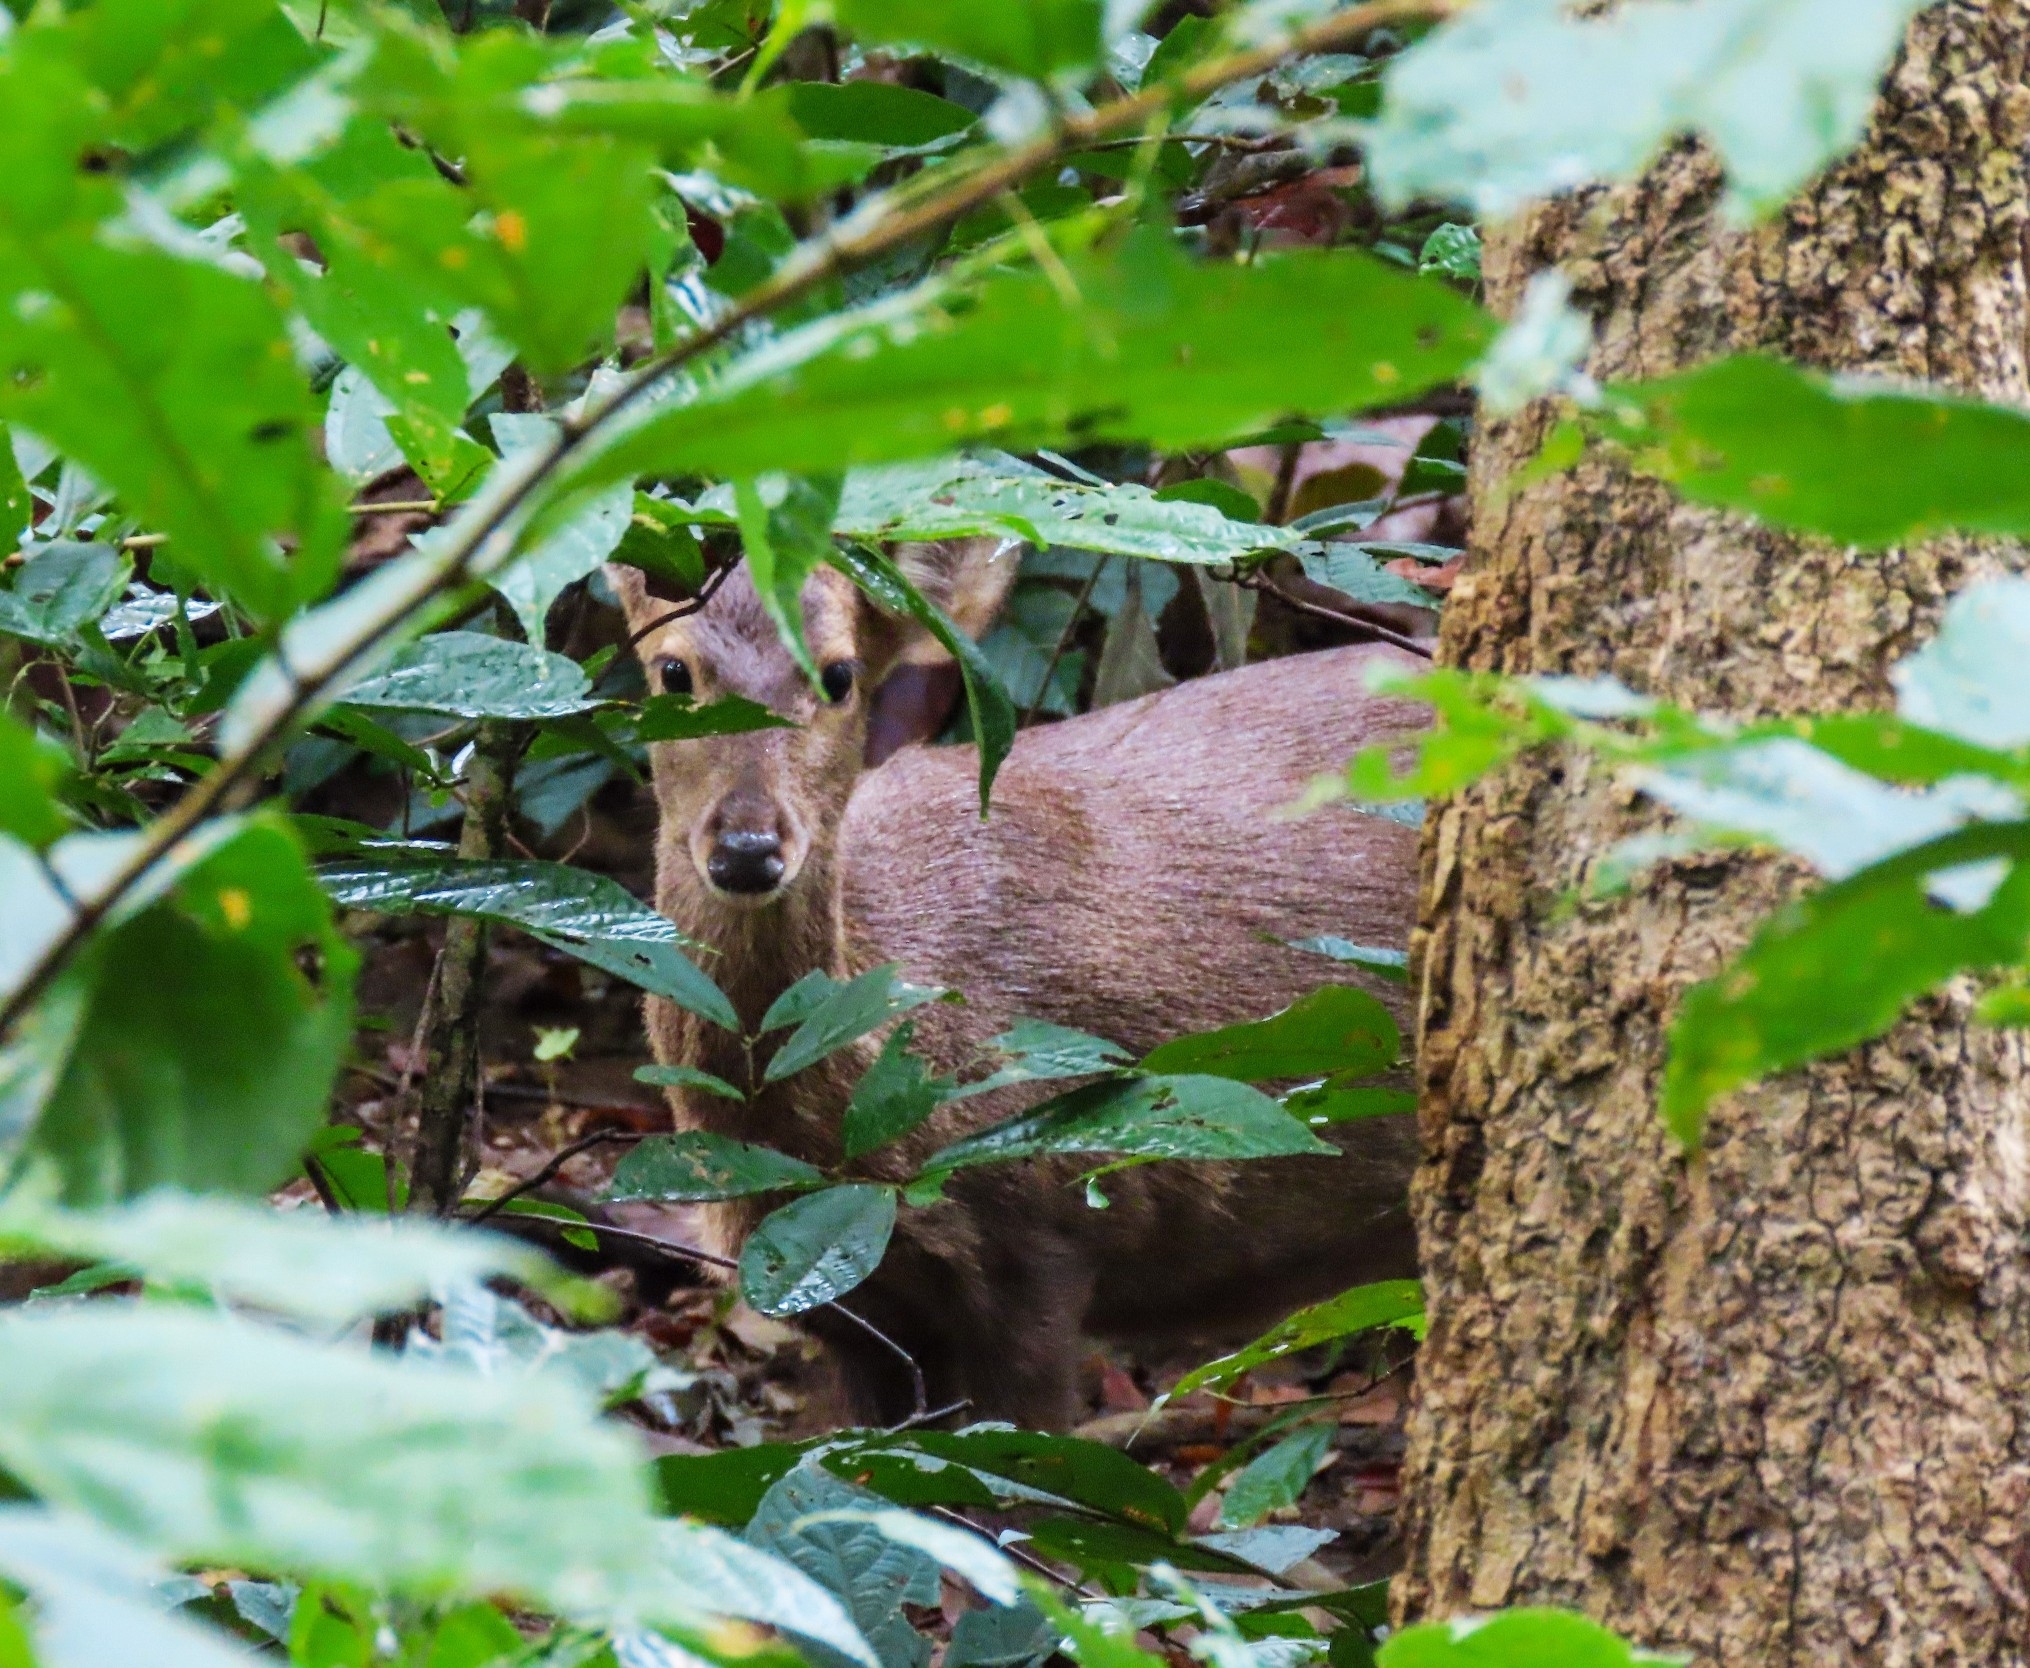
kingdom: Animalia
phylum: Chordata
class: Mammalia
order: Artiodactyla
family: Cervidae
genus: Rusa
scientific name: Rusa unicolor
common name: Sambar
